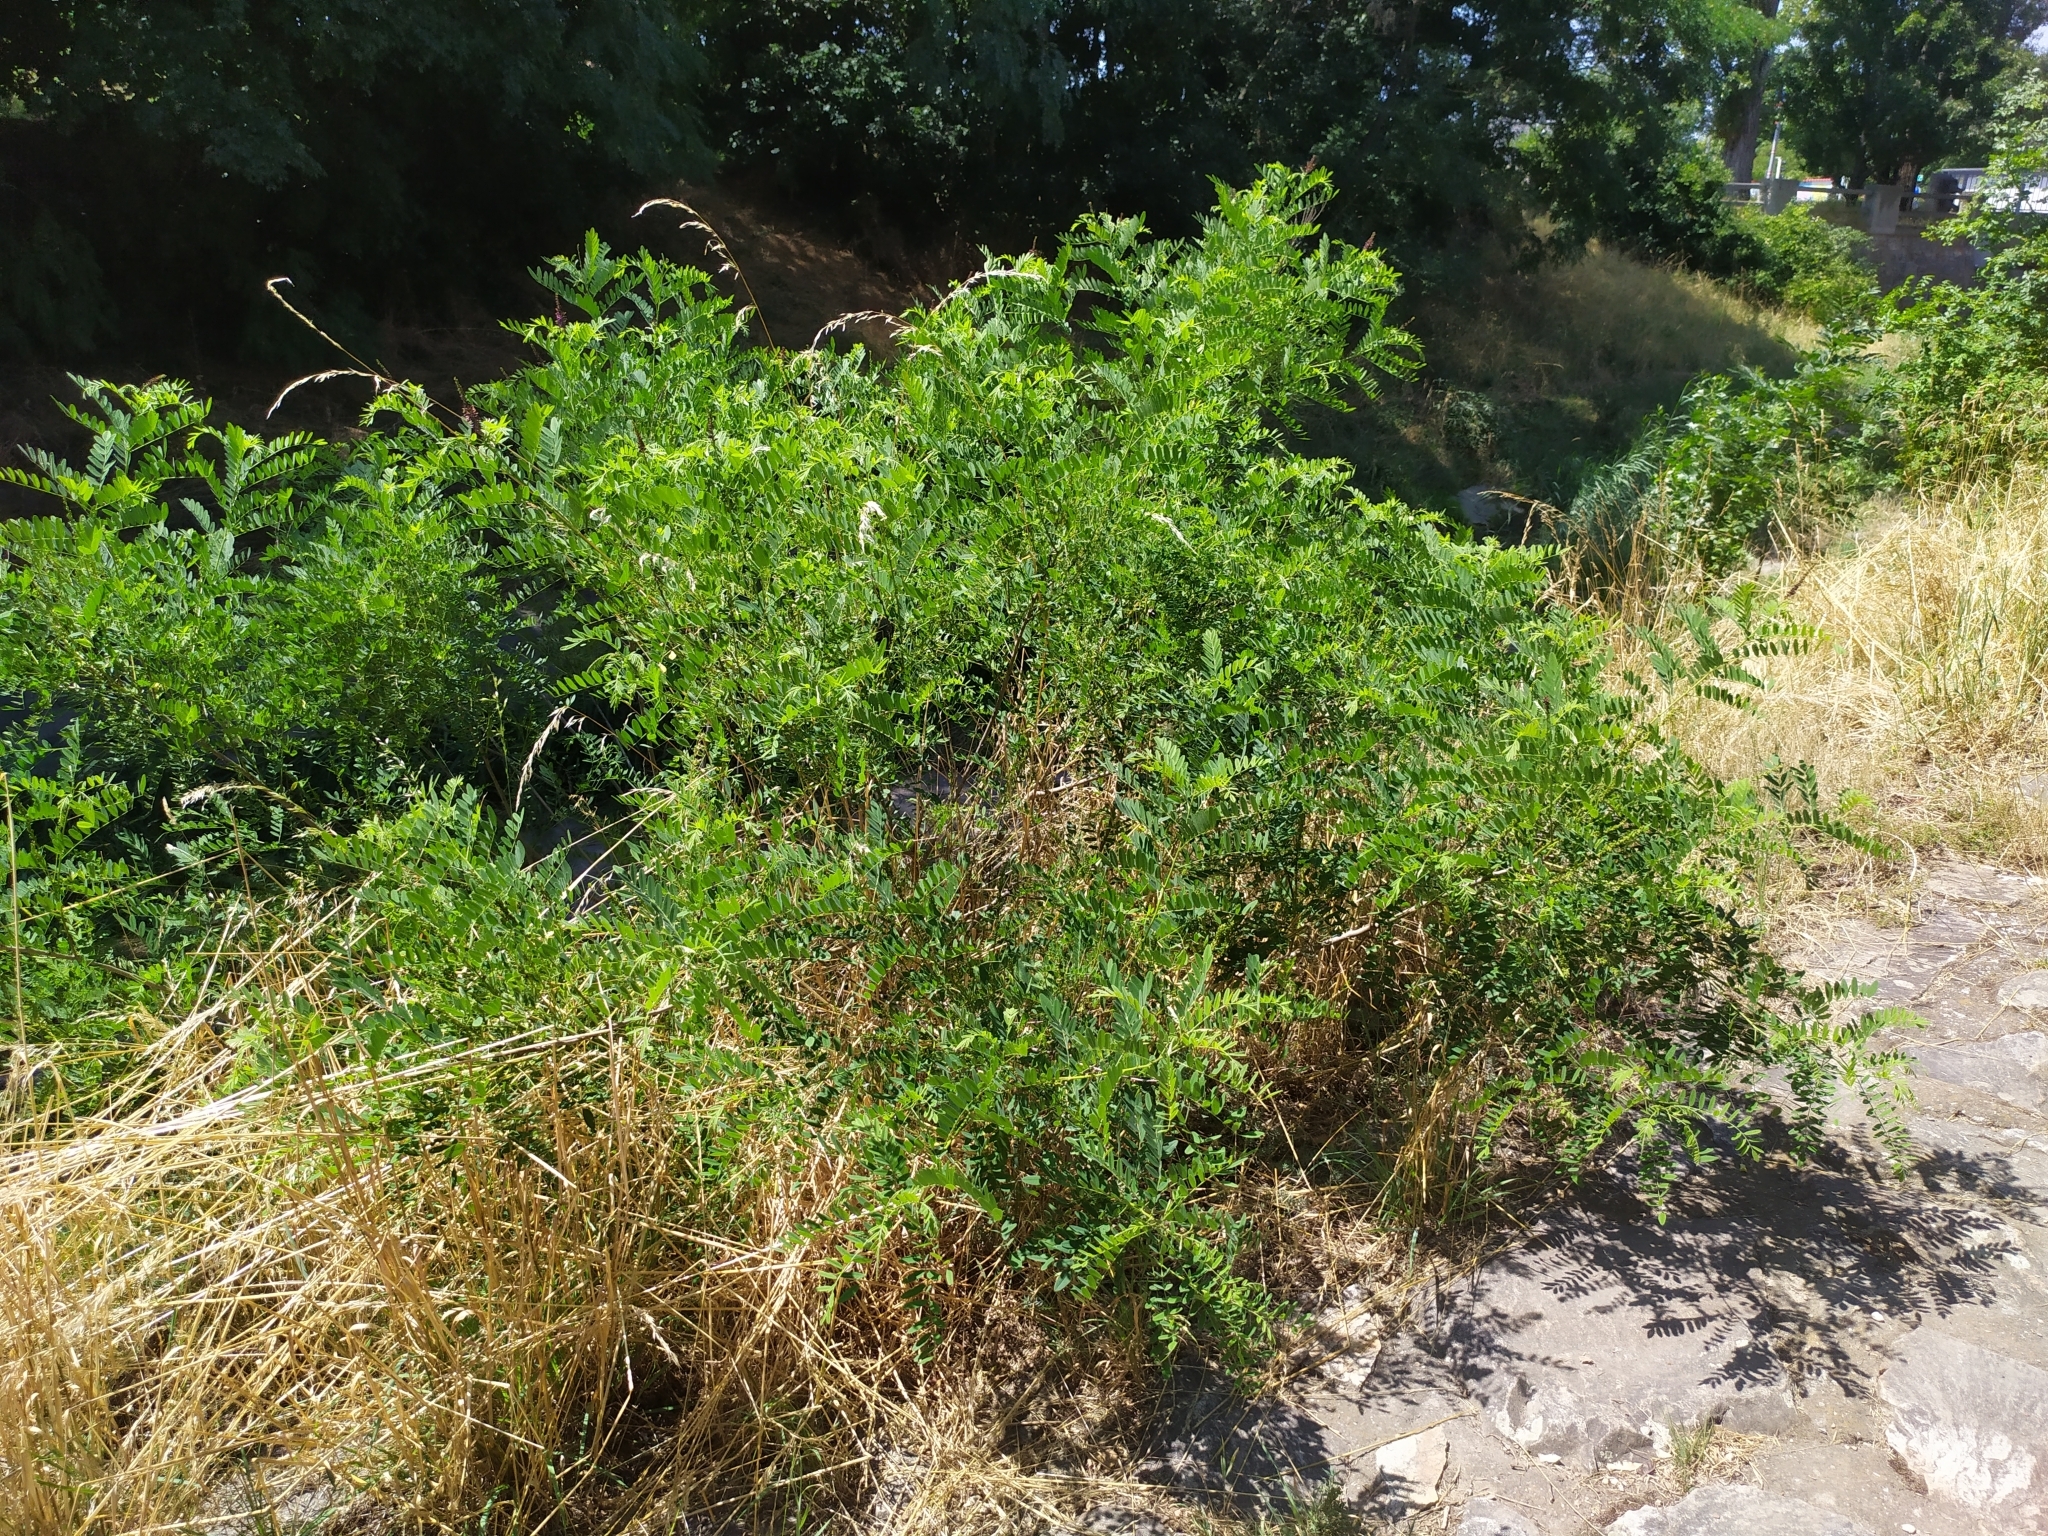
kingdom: Plantae
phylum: Tracheophyta
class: Magnoliopsida
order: Fabales
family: Fabaceae
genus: Amorpha
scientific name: Amorpha fruticosa
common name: False indigo
